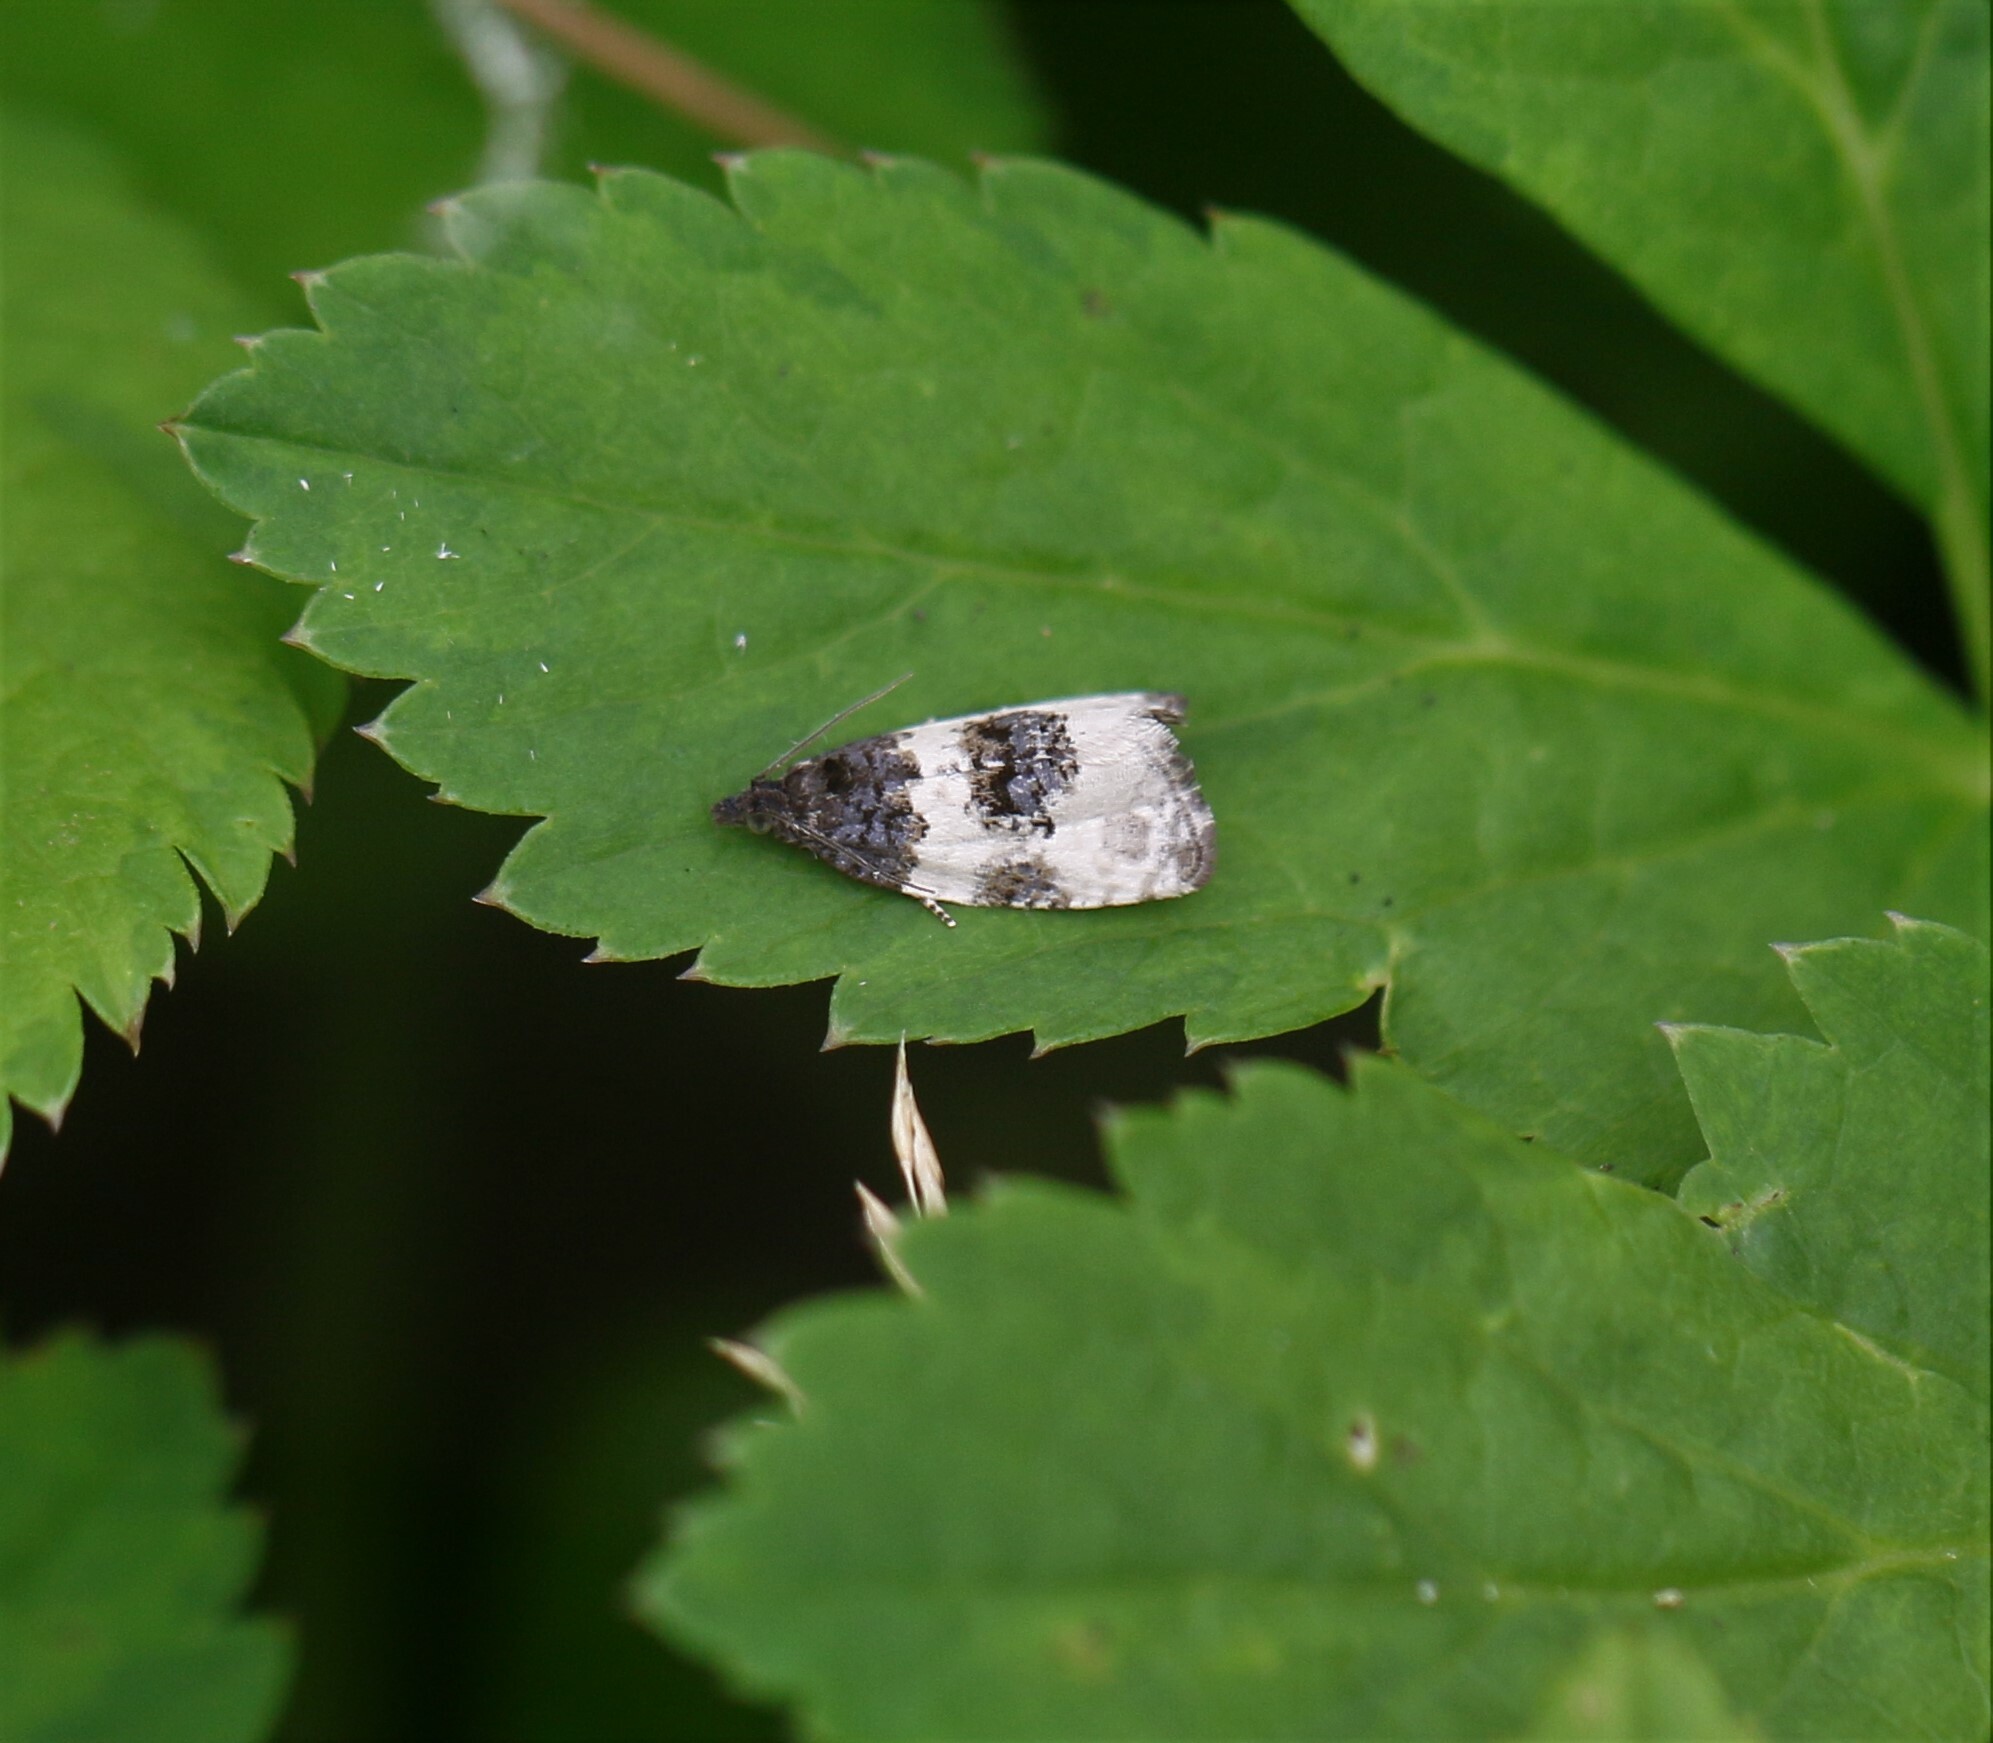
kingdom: Animalia
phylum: Arthropoda
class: Insecta
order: Lepidoptera
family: Tortricidae
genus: Olethreutes
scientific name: Olethreutes bipartitana
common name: Divided olethreutes moth
